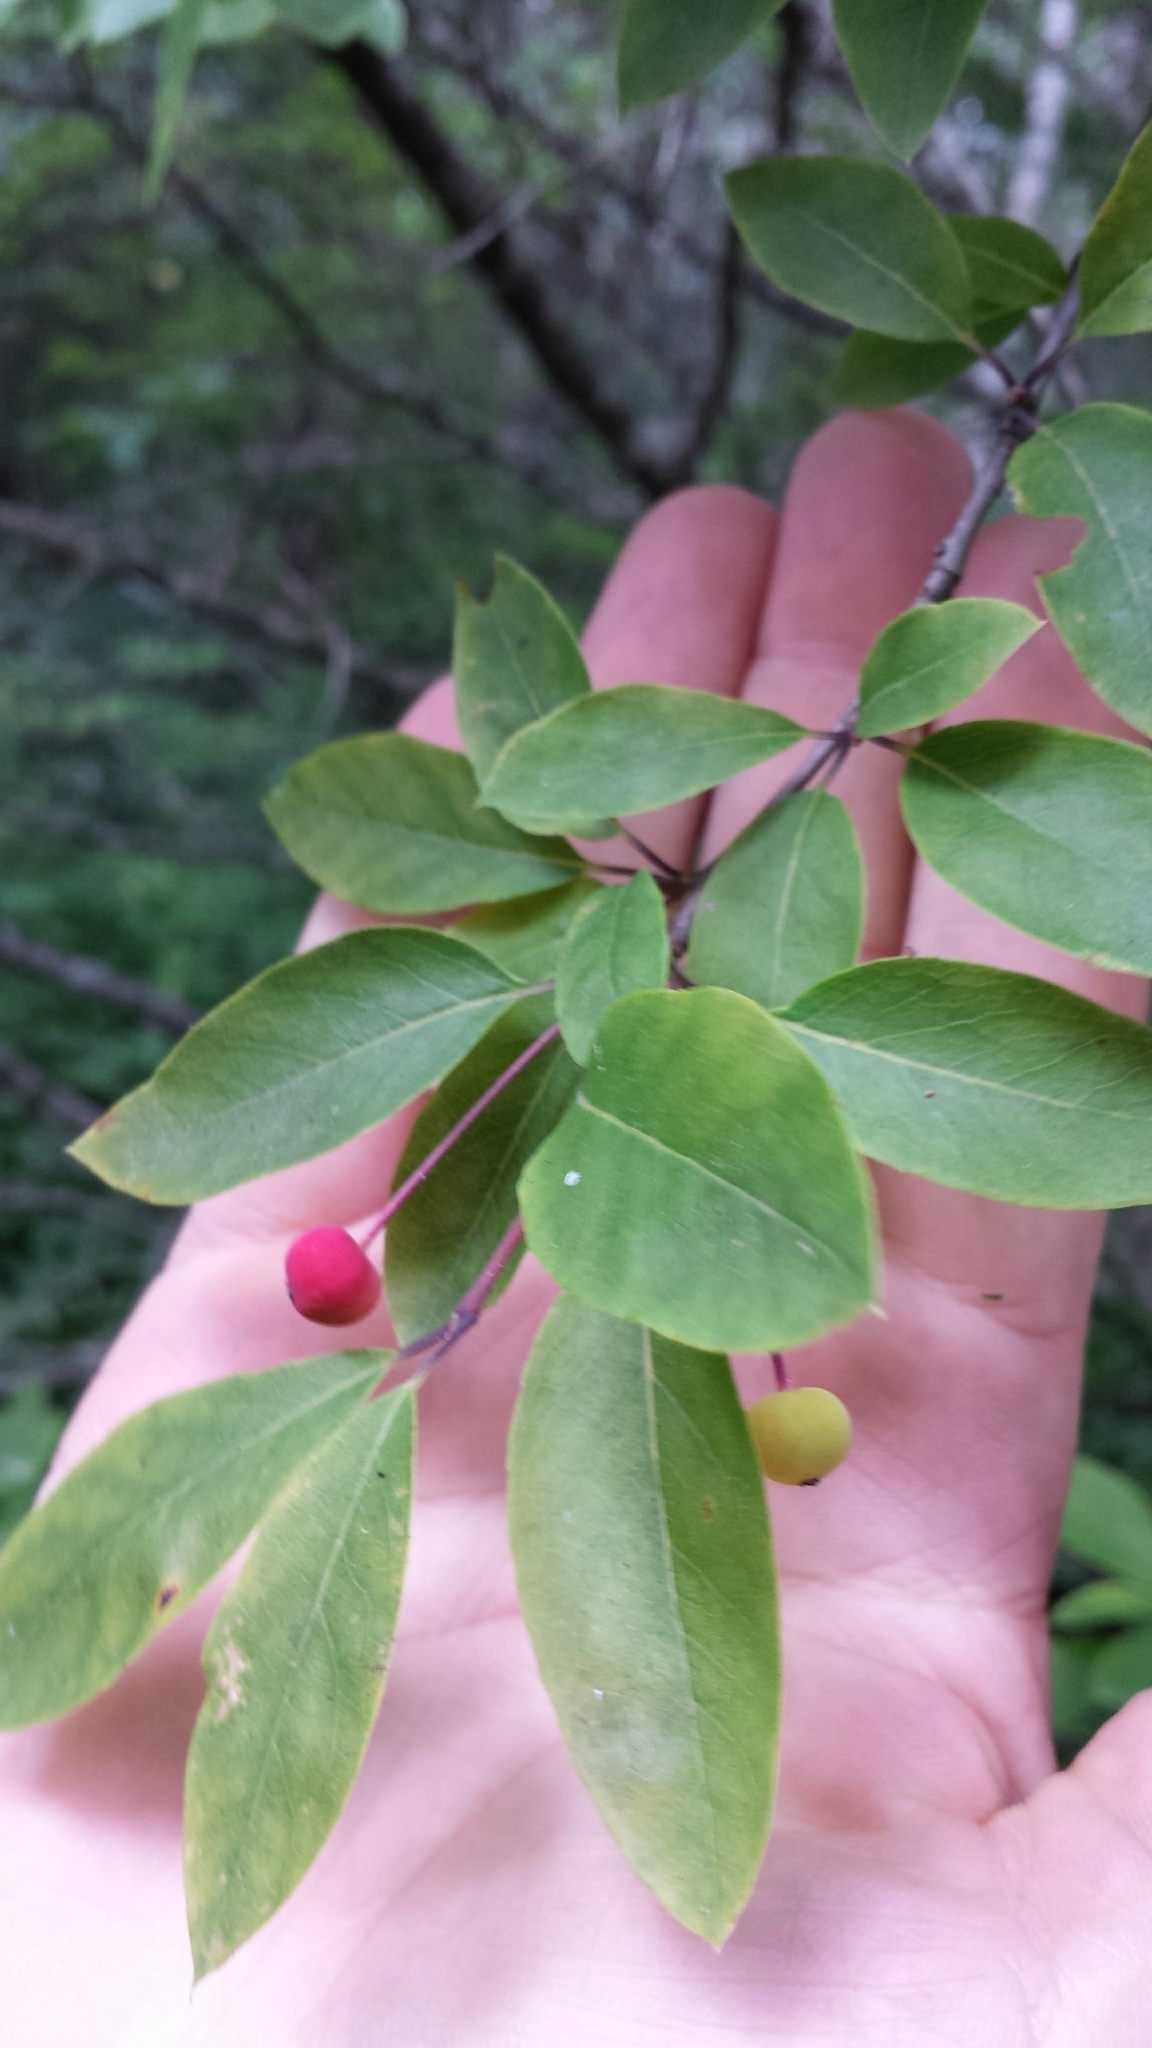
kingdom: Plantae
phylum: Tracheophyta
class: Magnoliopsida
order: Aquifoliales
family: Aquifoliaceae
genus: Ilex
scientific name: Ilex mucronata
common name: Catberry
